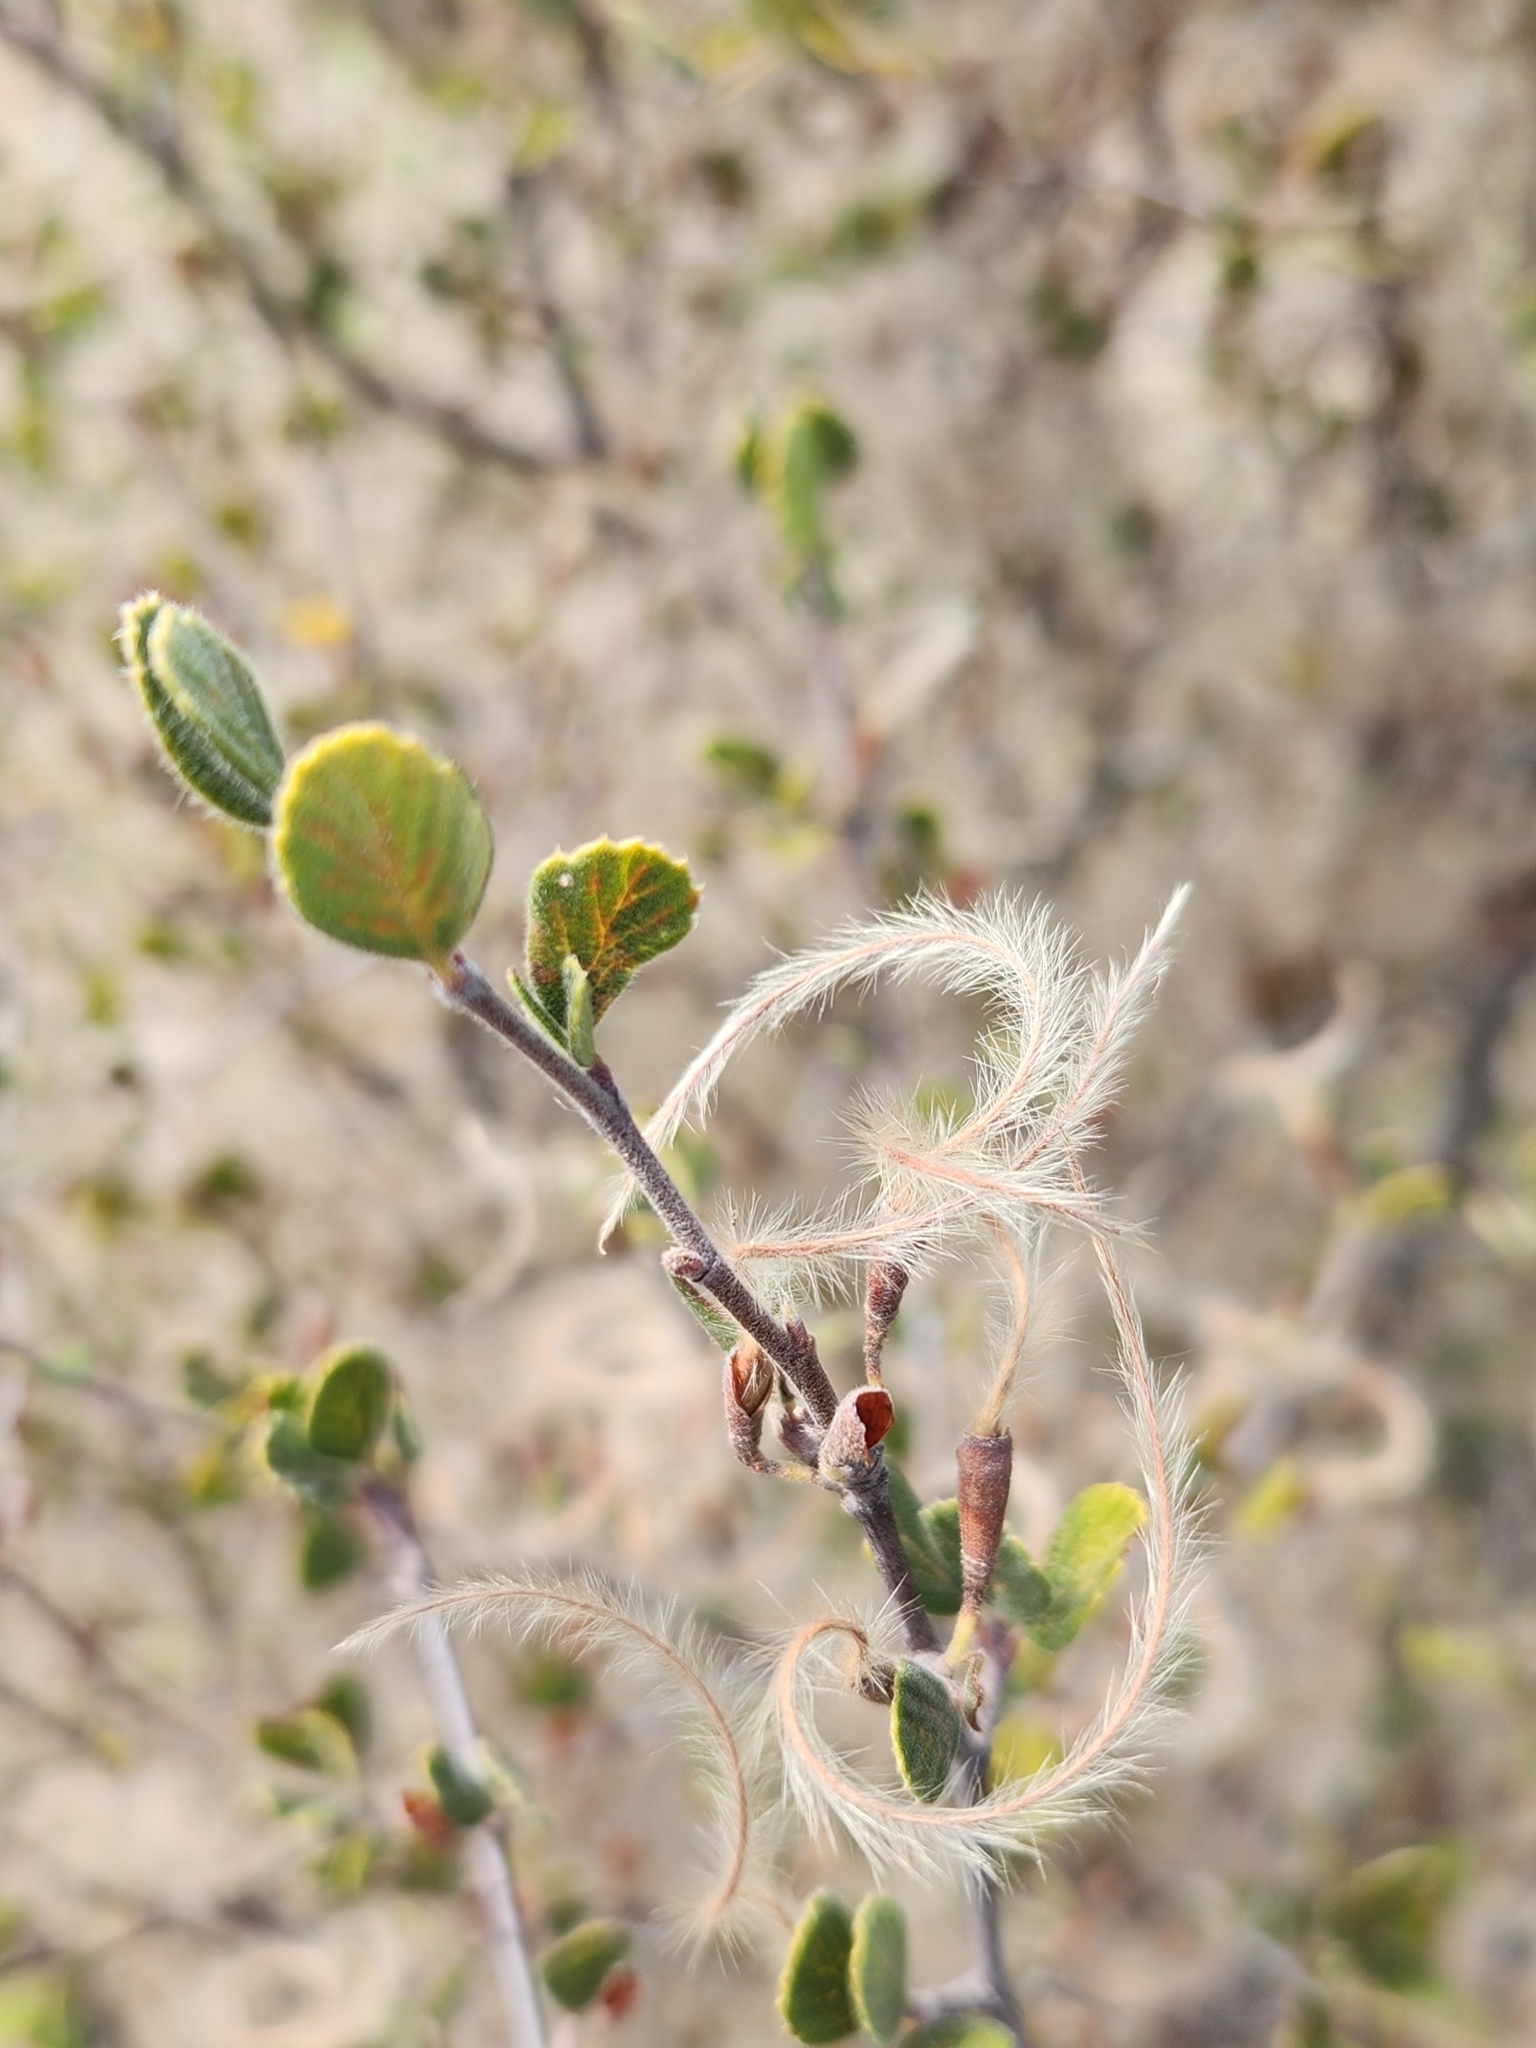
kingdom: Plantae
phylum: Tracheophyta
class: Magnoliopsida
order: Rosales
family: Rosaceae
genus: Cercocarpus
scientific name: Cercocarpus betuloides
